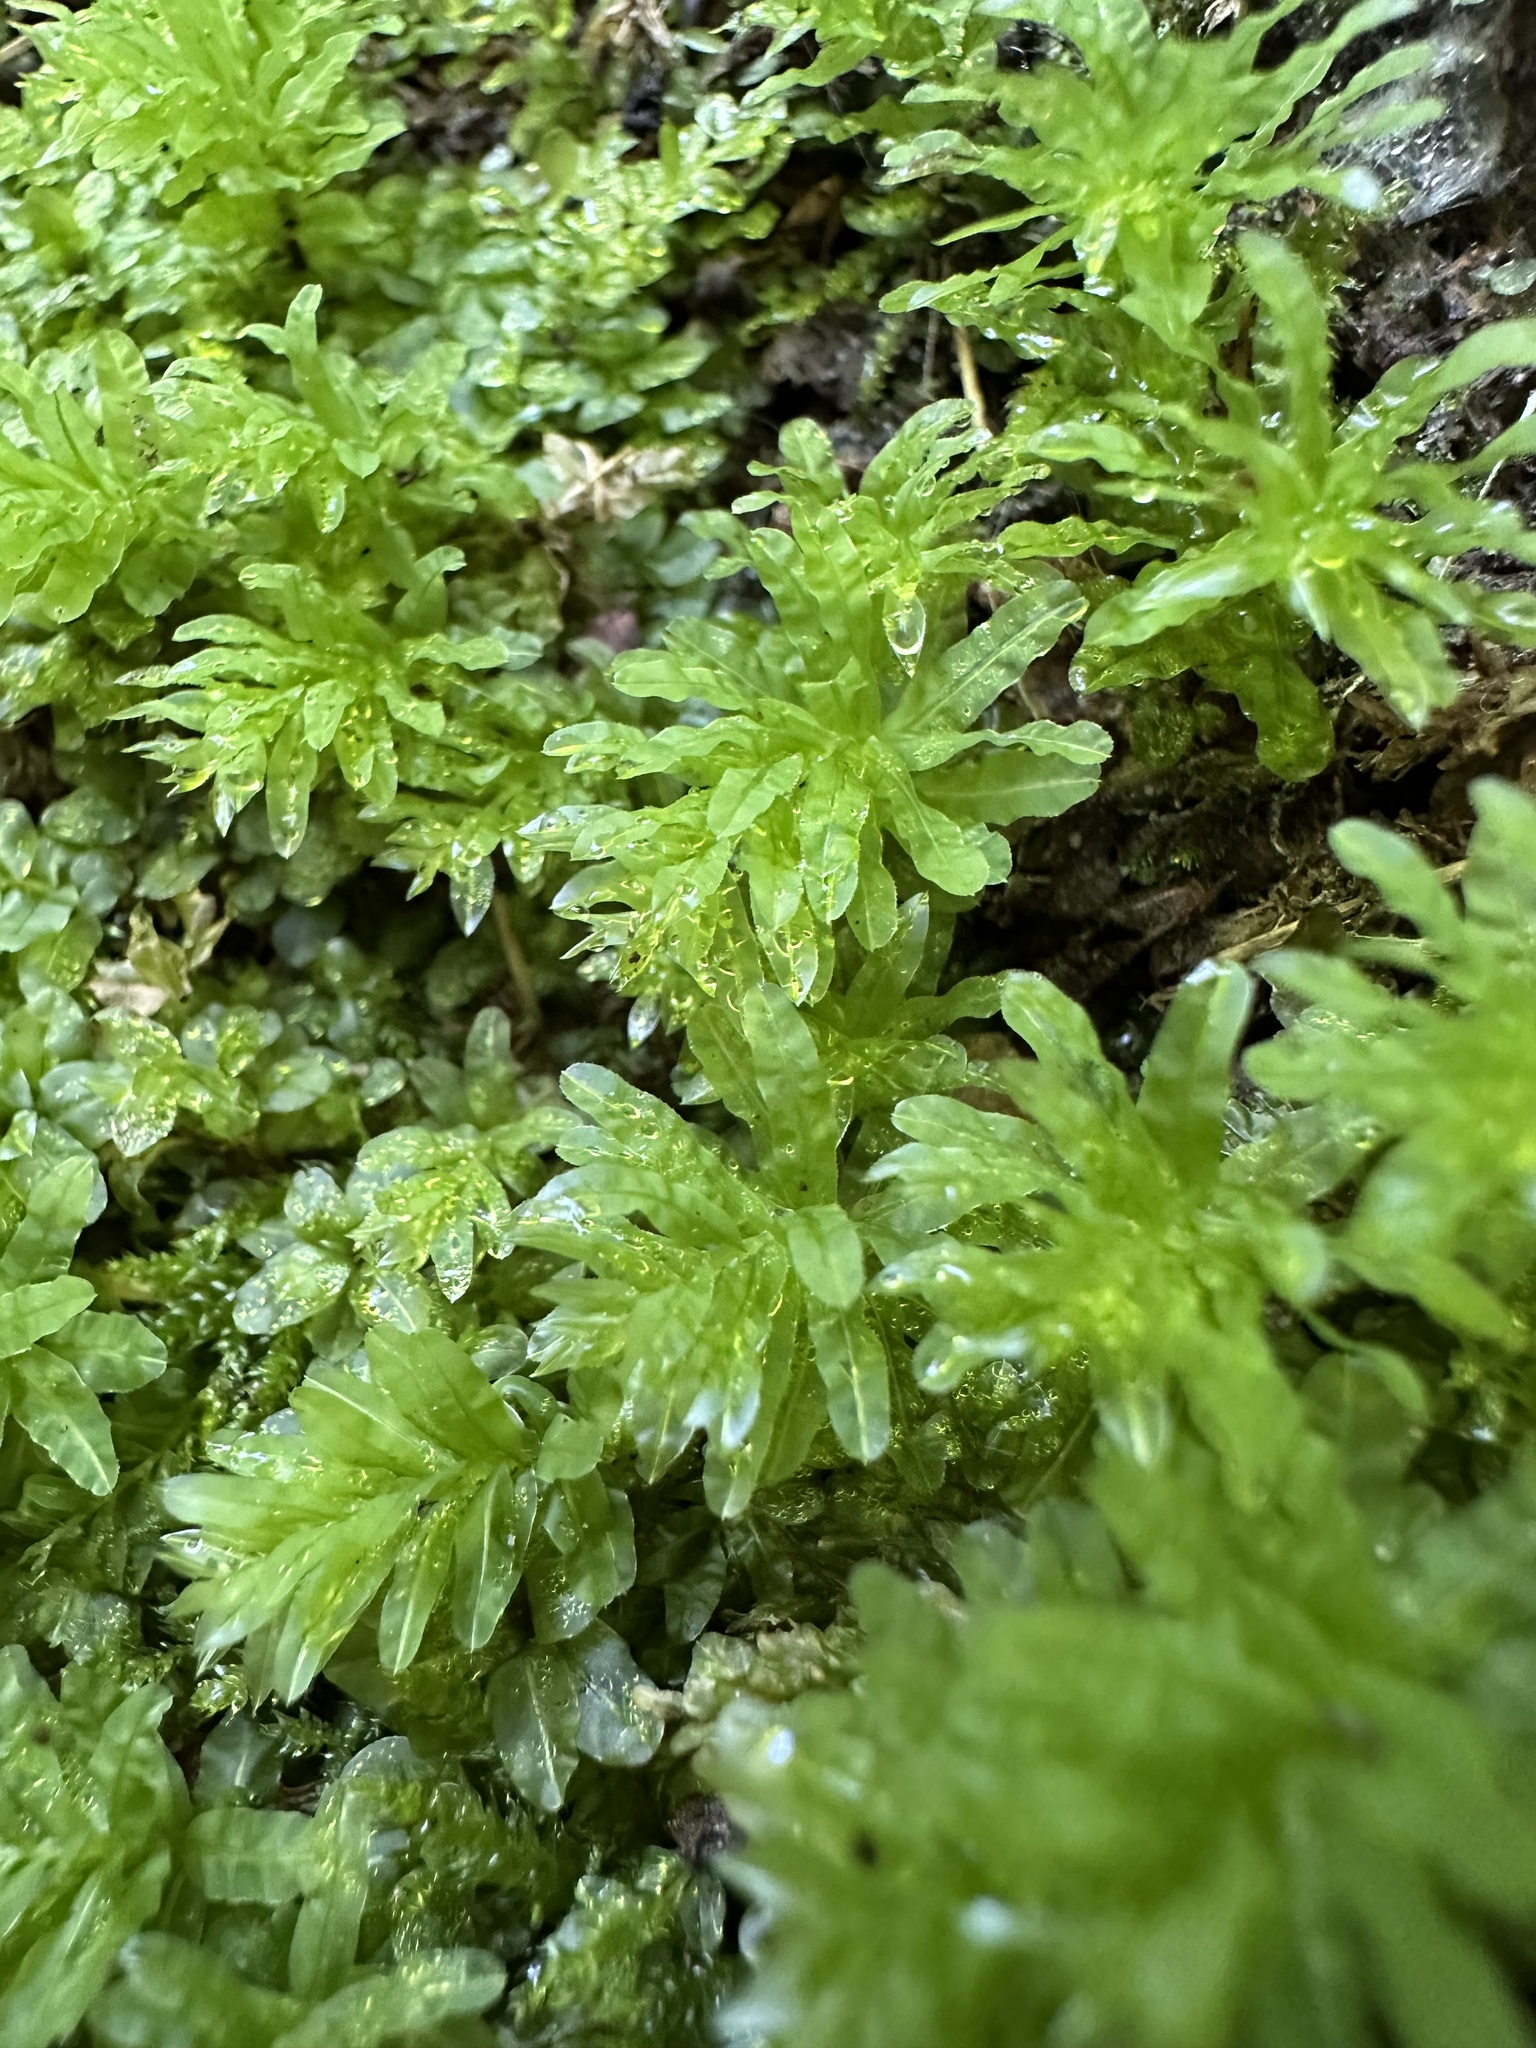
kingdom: Plantae
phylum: Bryophyta
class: Bryopsida
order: Bryales
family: Mniaceae
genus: Plagiomnium
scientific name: Plagiomnium undulatum
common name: Hart's-tongue thyme-moss
